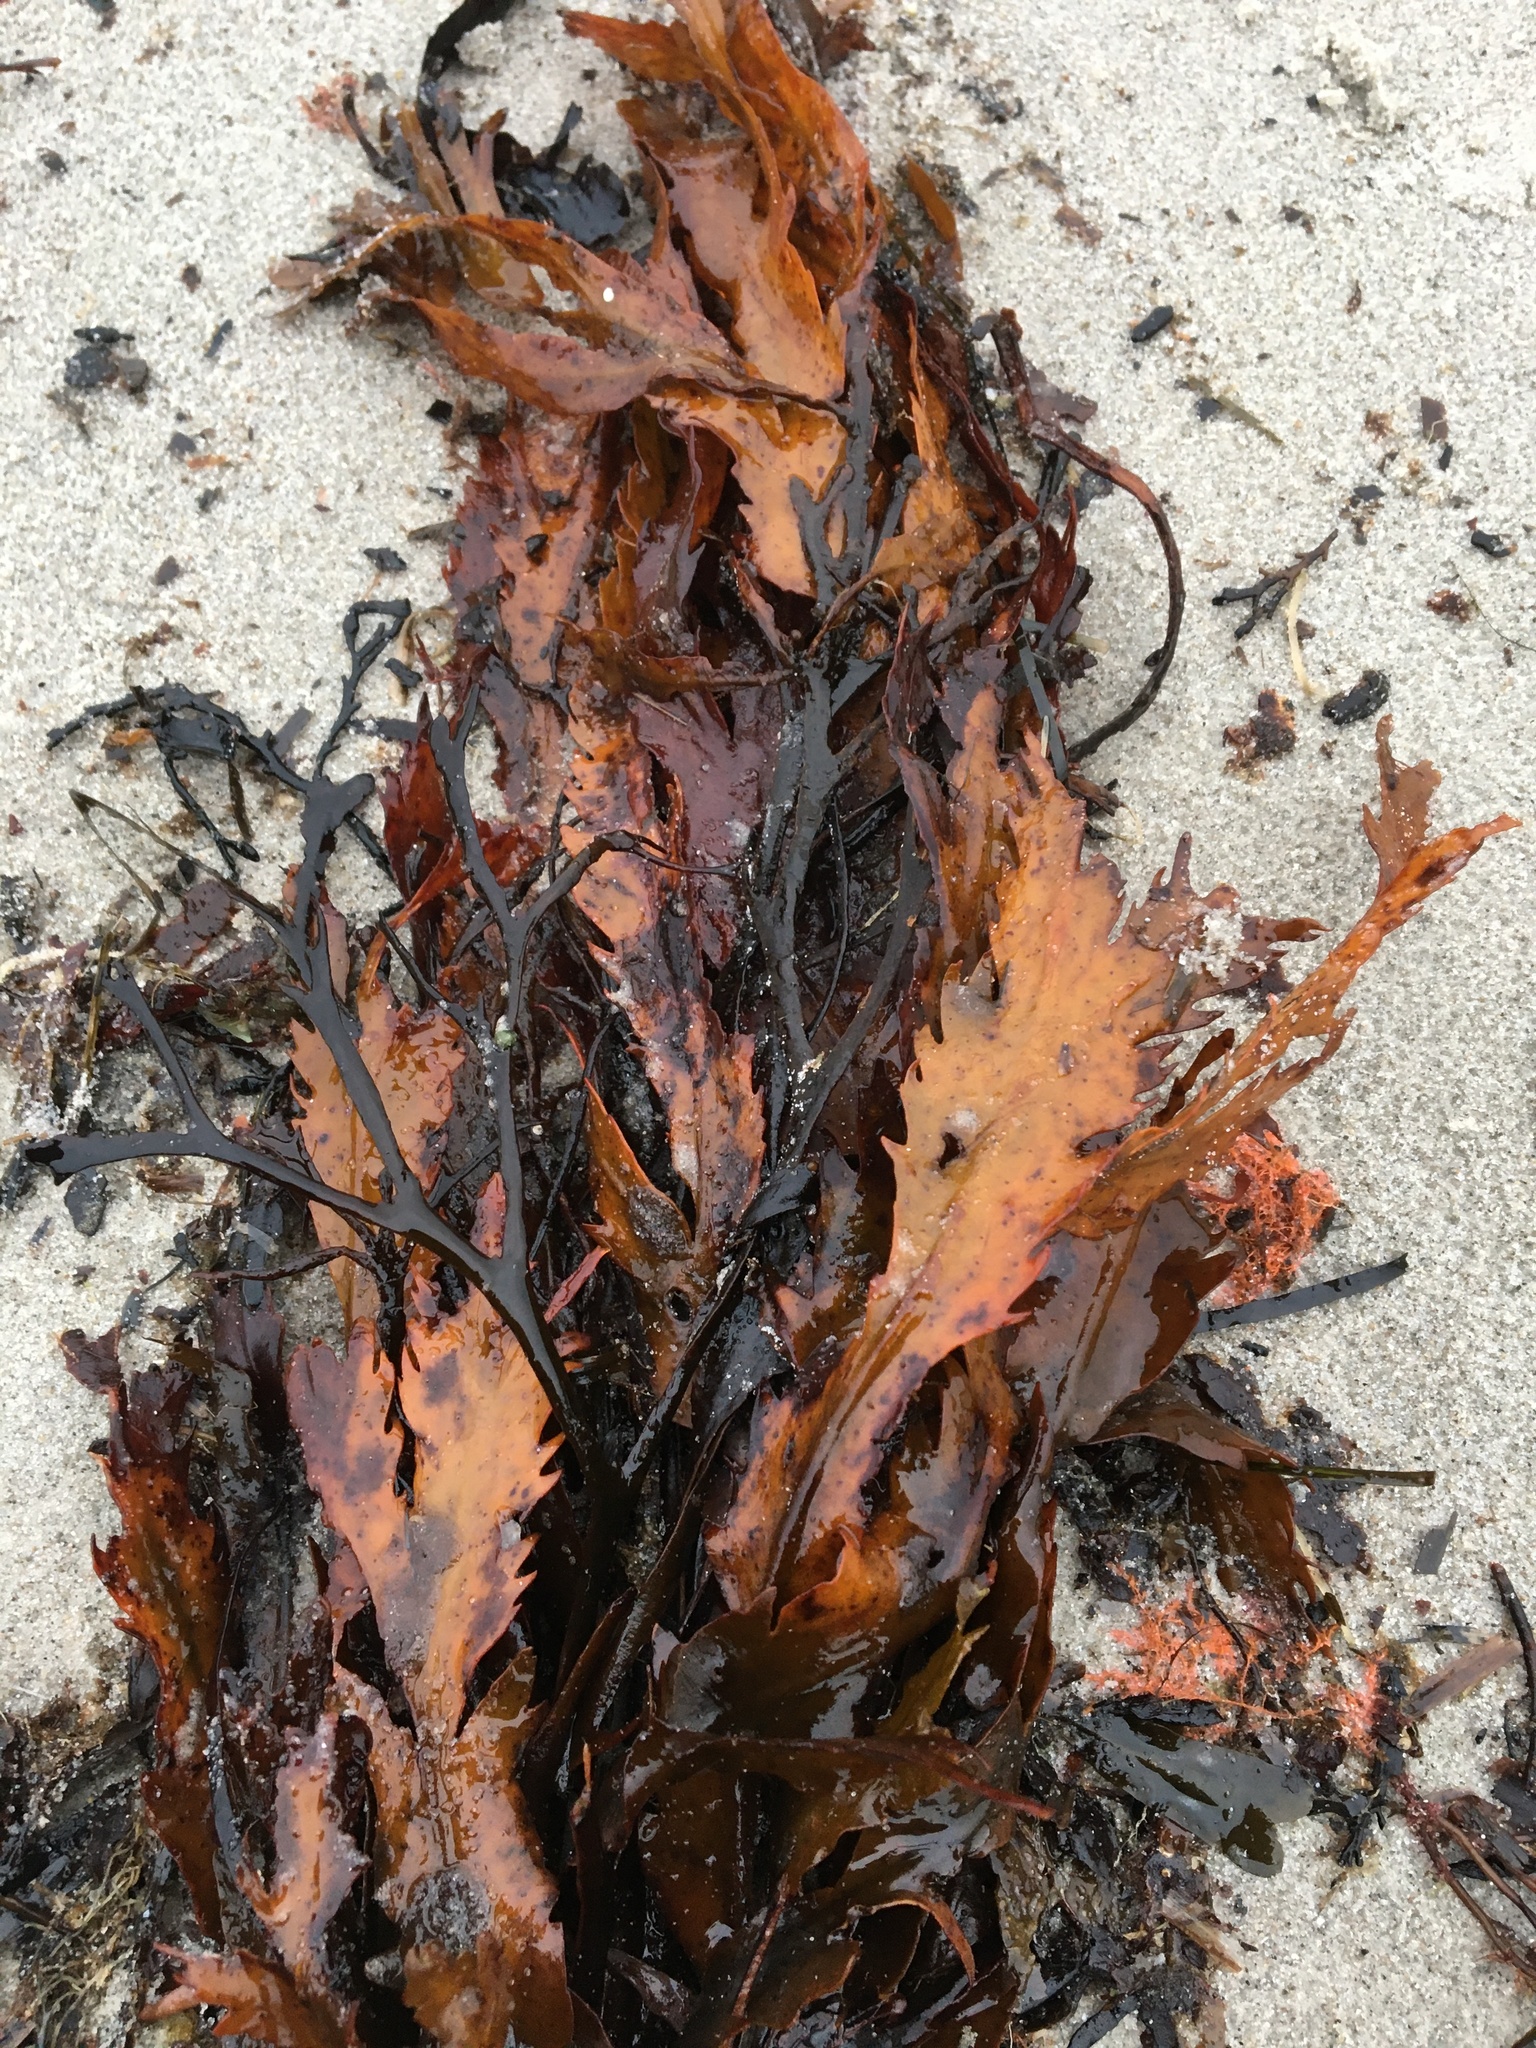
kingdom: Chromista
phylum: Ochrophyta
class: Phaeophyceae
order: Fucales
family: Fucaceae
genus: Fucus
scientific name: Fucus serratus
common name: Toothed wrack
